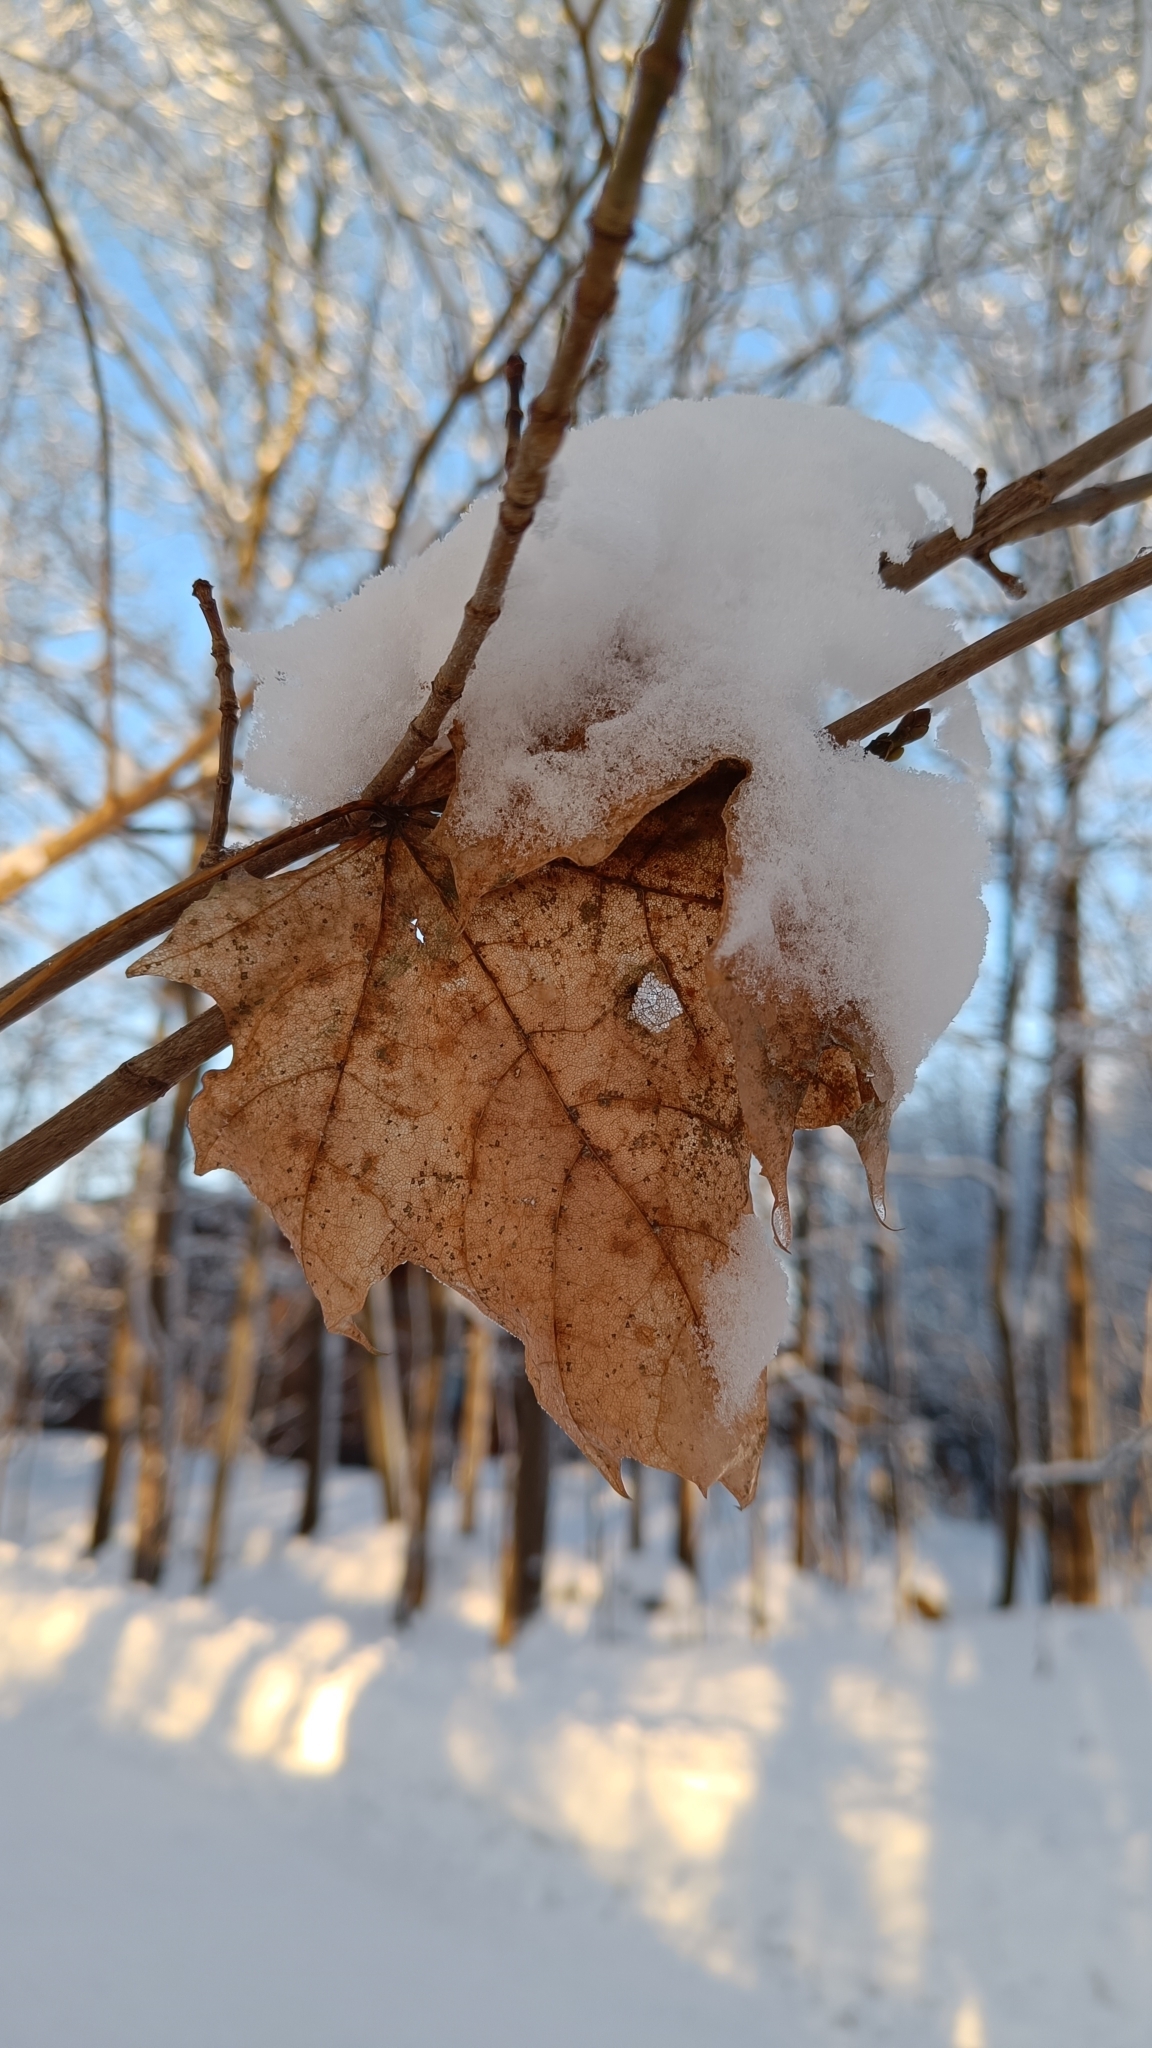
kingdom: Plantae
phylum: Tracheophyta
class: Magnoliopsida
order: Sapindales
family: Sapindaceae
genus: Acer
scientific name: Acer platanoides
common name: Norway maple
